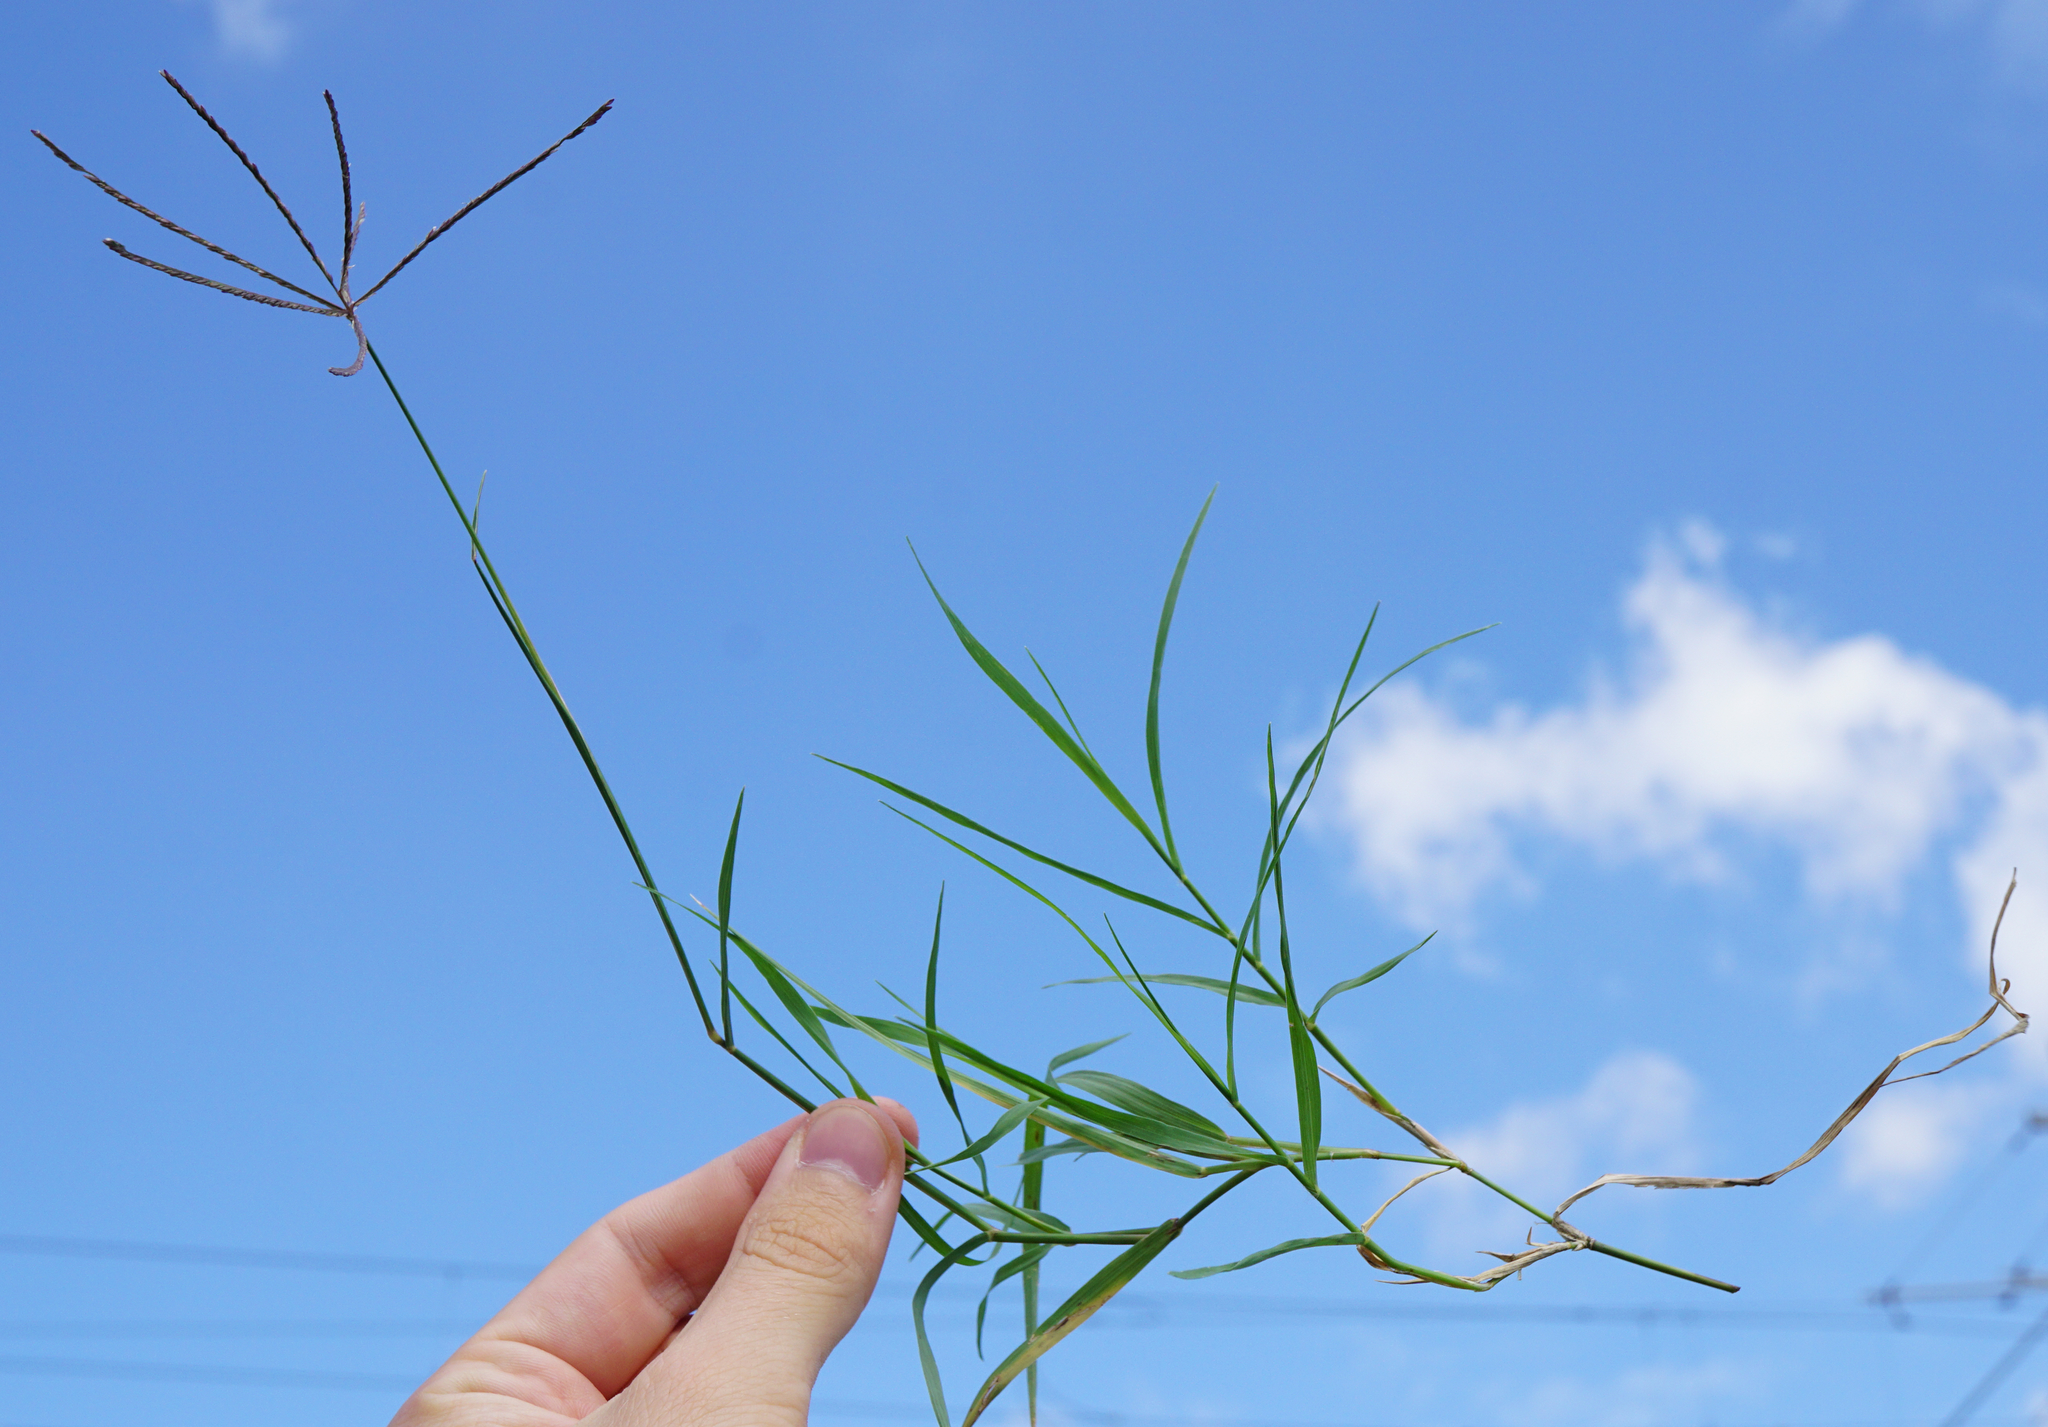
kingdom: Plantae
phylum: Tracheophyta
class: Liliopsida
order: Poales
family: Poaceae
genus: Cynodon
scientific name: Cynodon dactylon
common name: Bermuda grass
